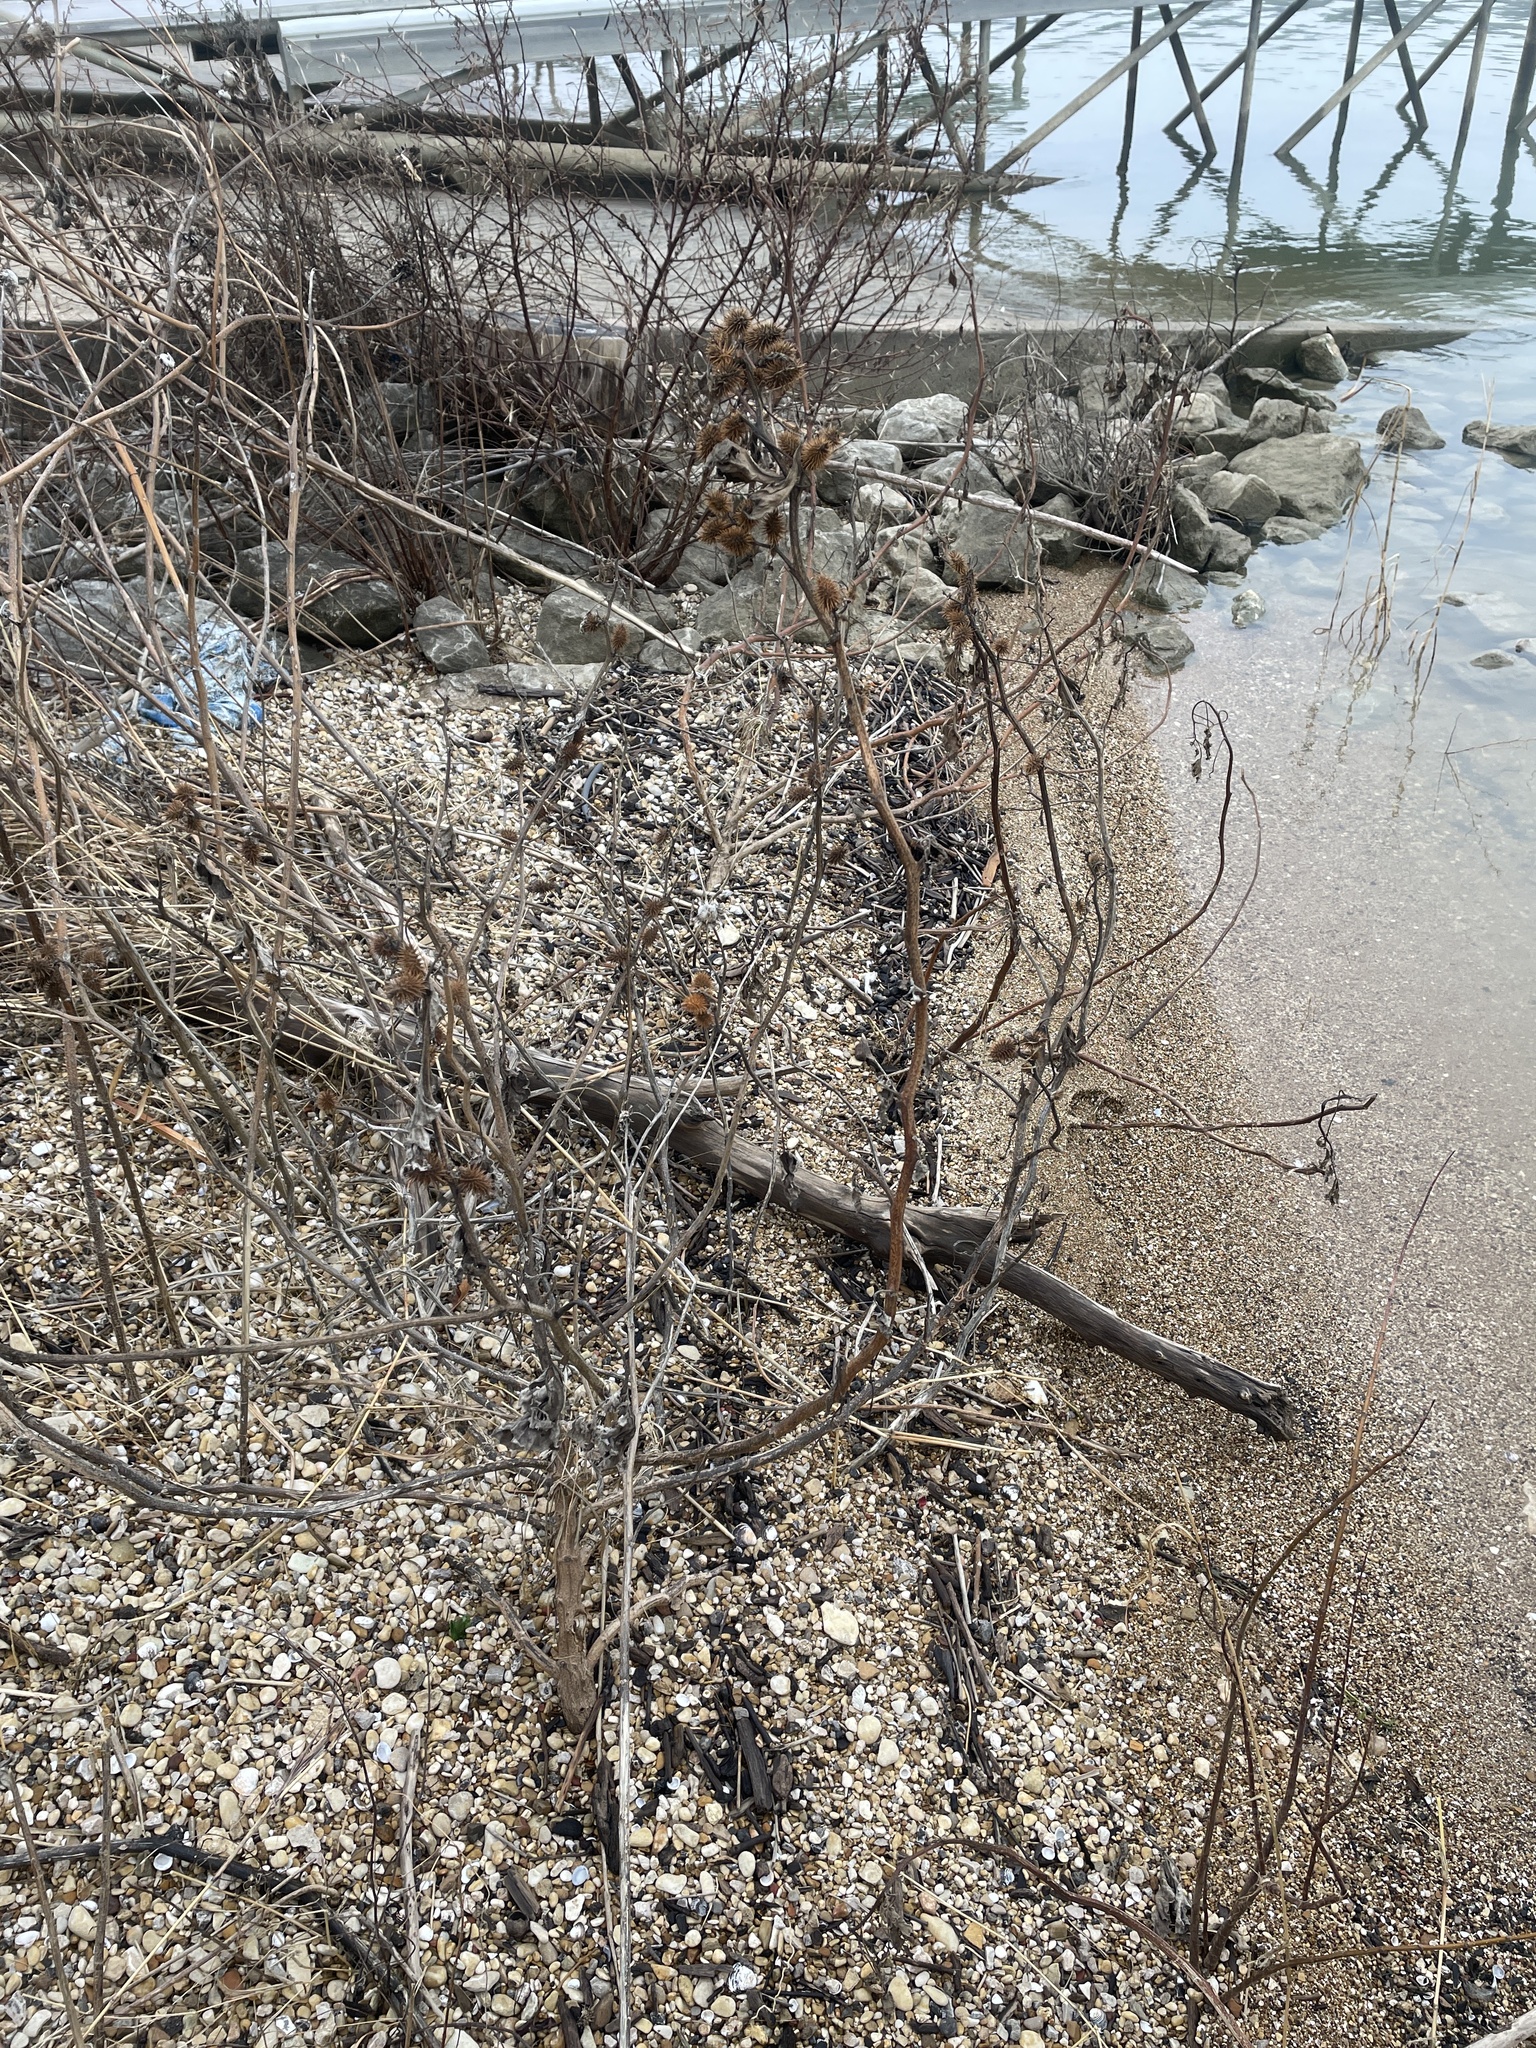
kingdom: Plantae
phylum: Tracheophyta
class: Magnoliopsida
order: Asterales
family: Asteraceae
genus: Xanthium
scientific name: Xanthium strumarium
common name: Rough cocklebur
